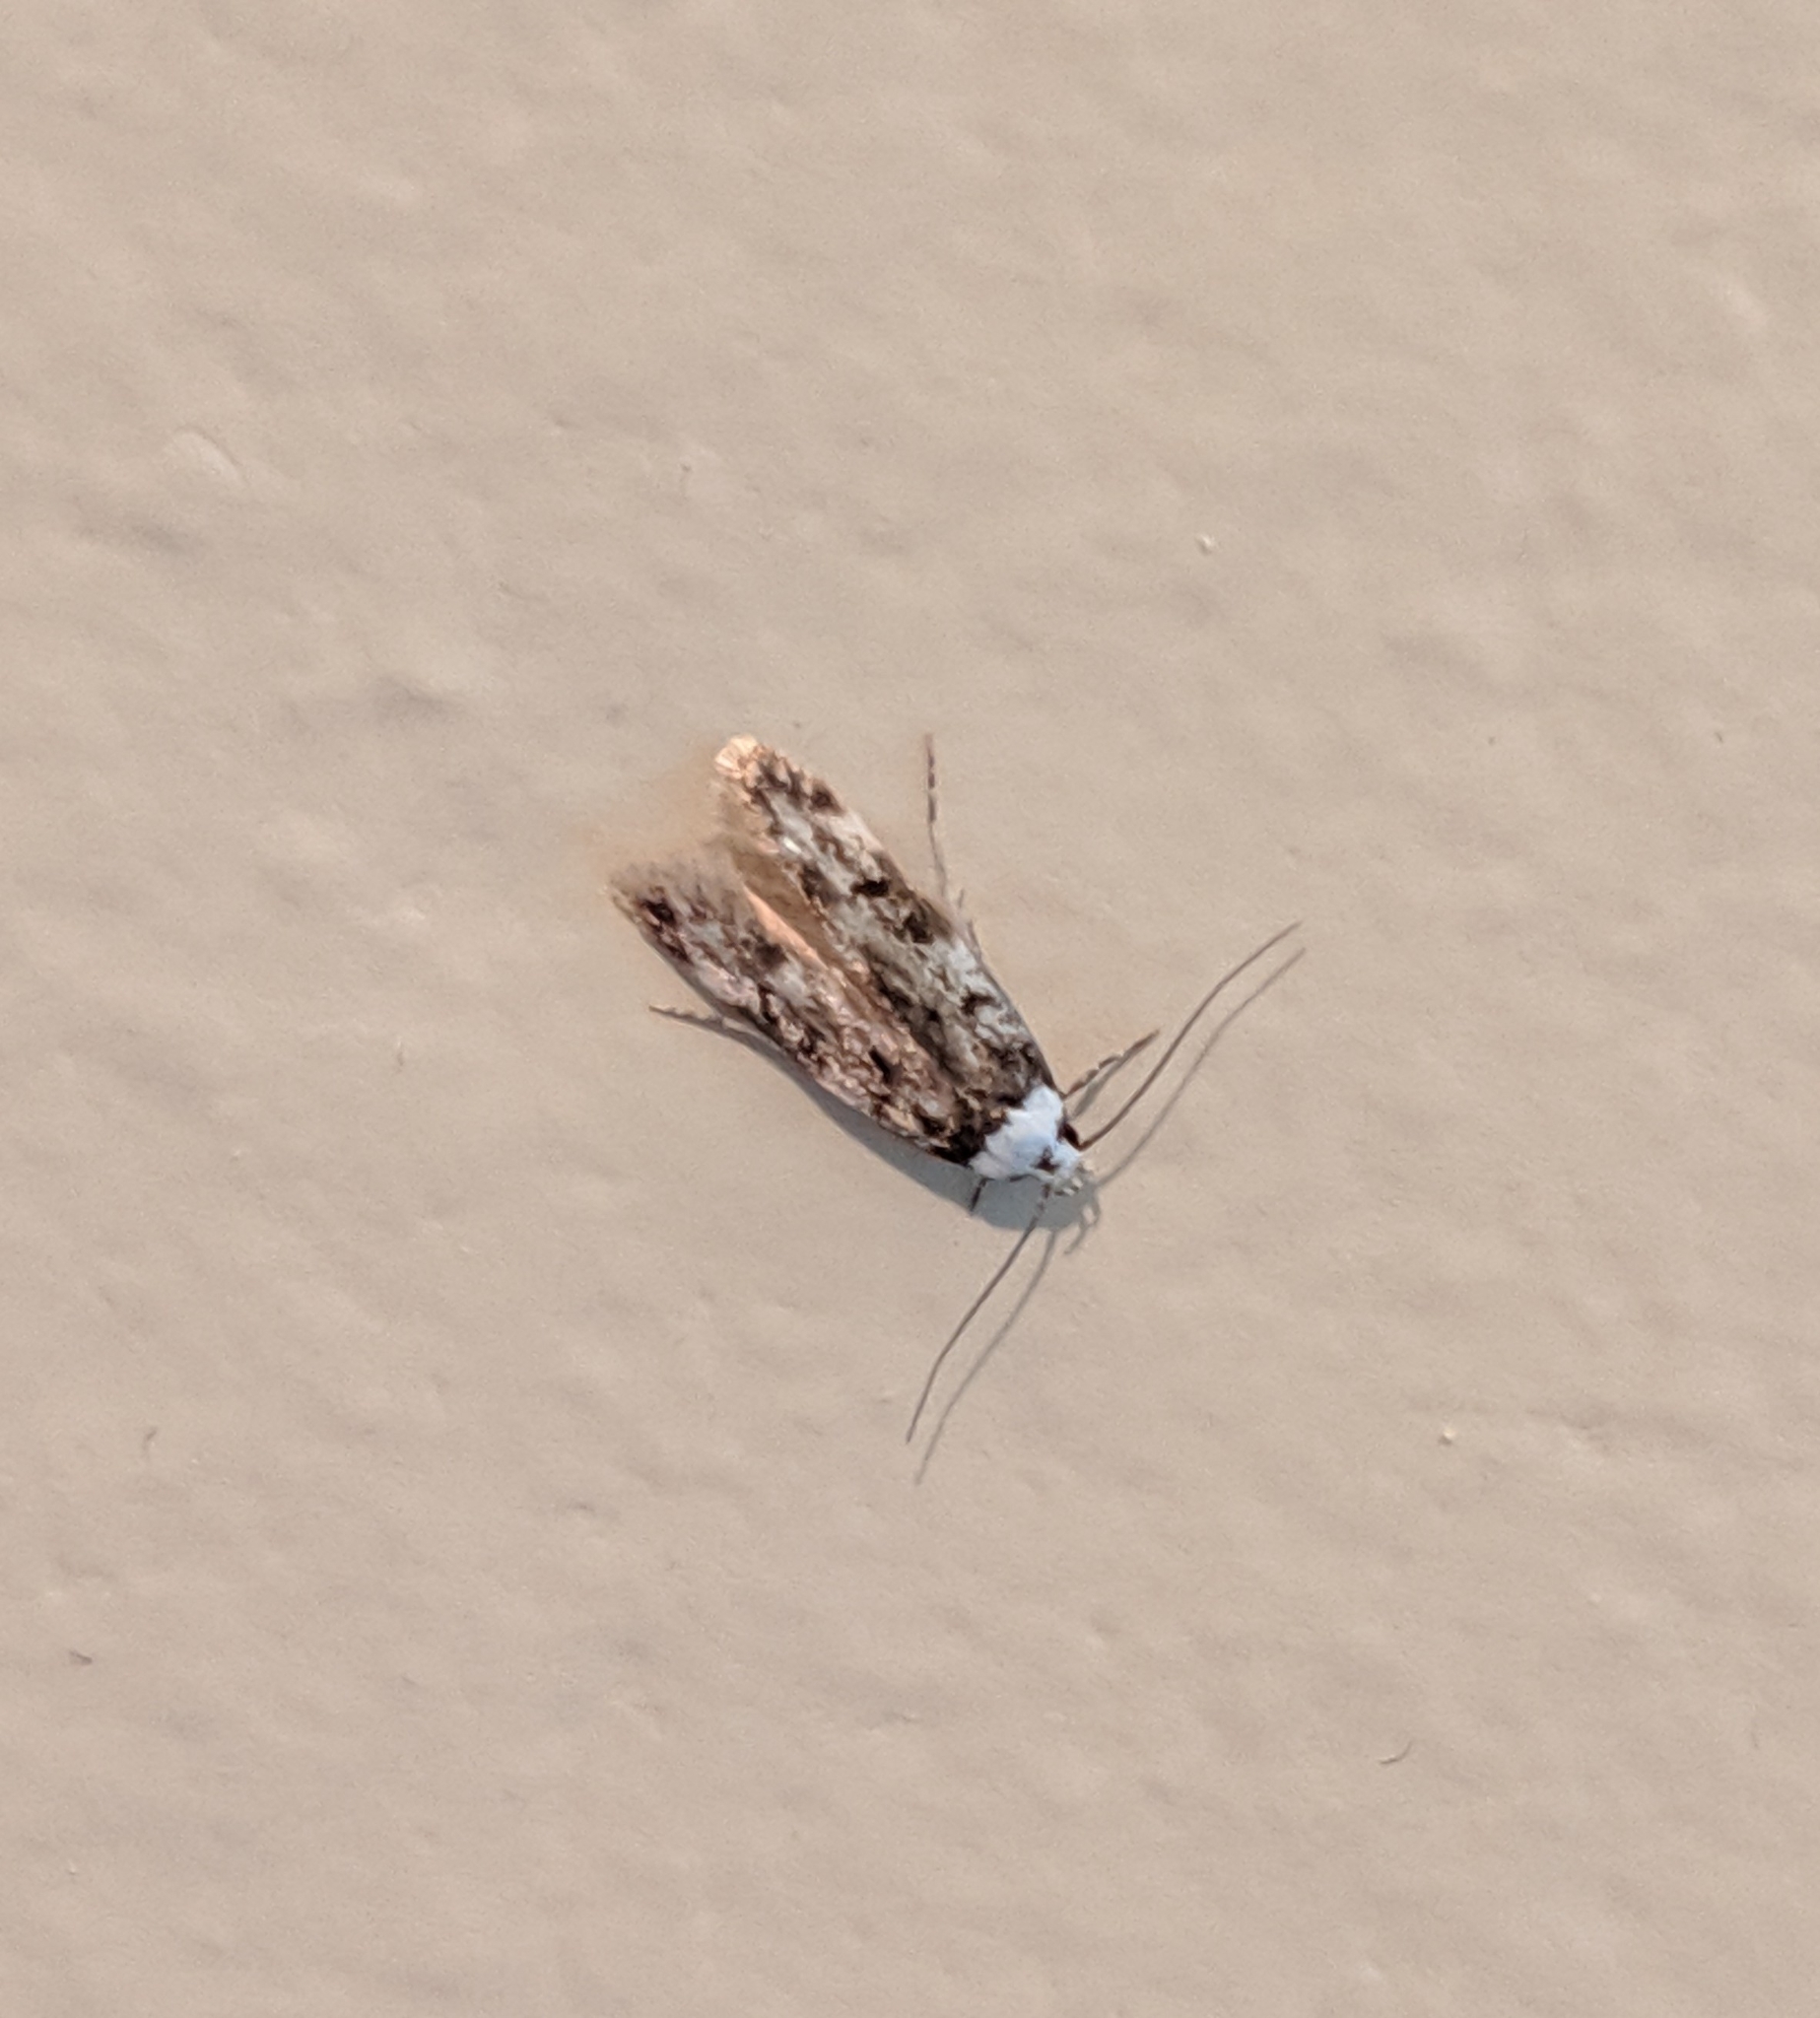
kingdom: Animalia
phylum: Arthropoda
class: Insecta
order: Lepidoptera
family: Oecophoridae
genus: Endrosis
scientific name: Endrosis sarcitrella
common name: White-shouldered house moth
